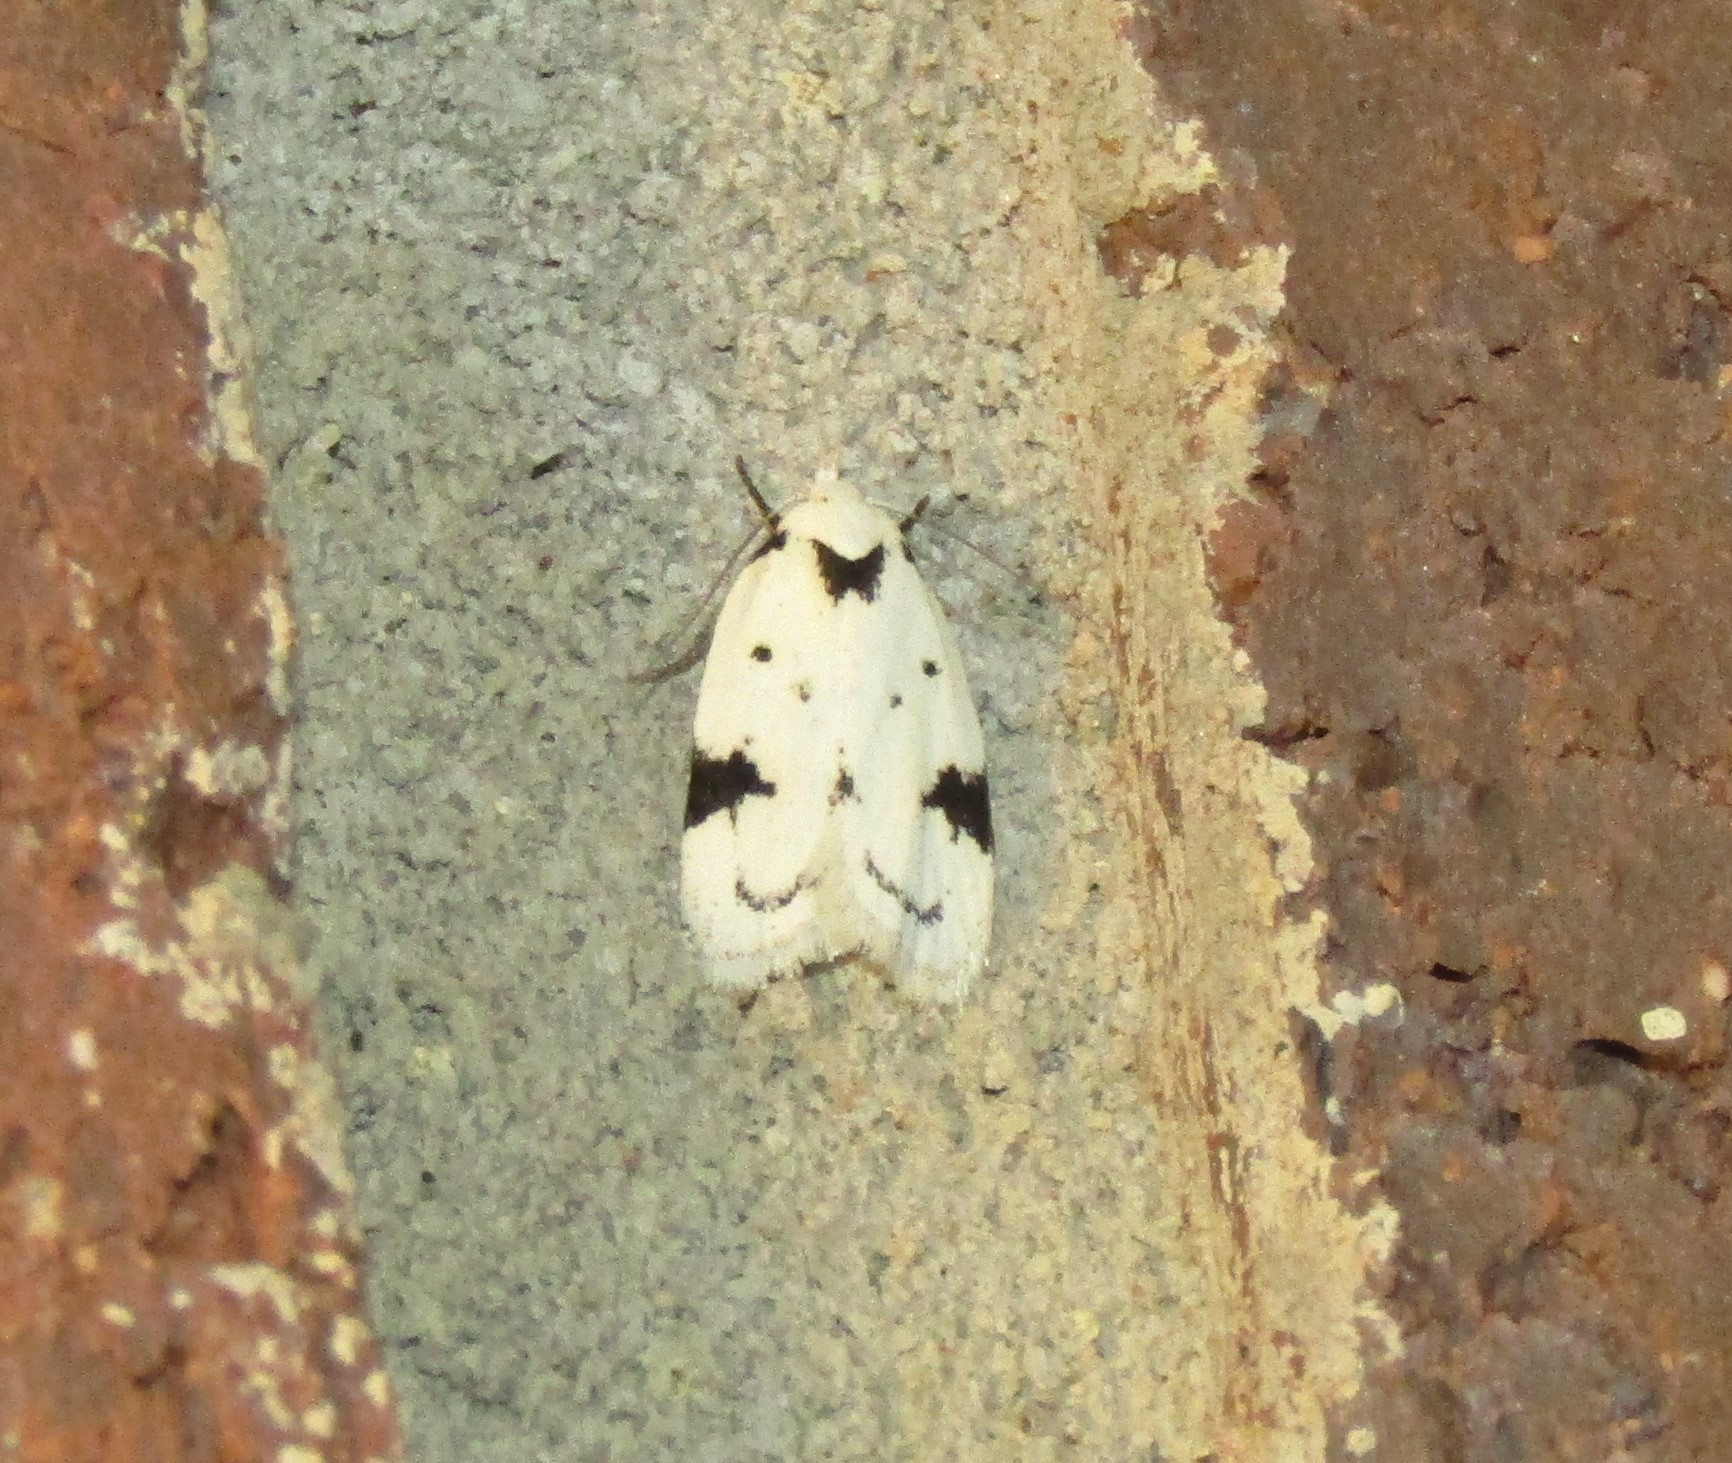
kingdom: Animalia
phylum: Arthropoda
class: Insecta
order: Lepidoptera
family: Oecophoridae
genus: Inga
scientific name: Inga sparsiciliella
